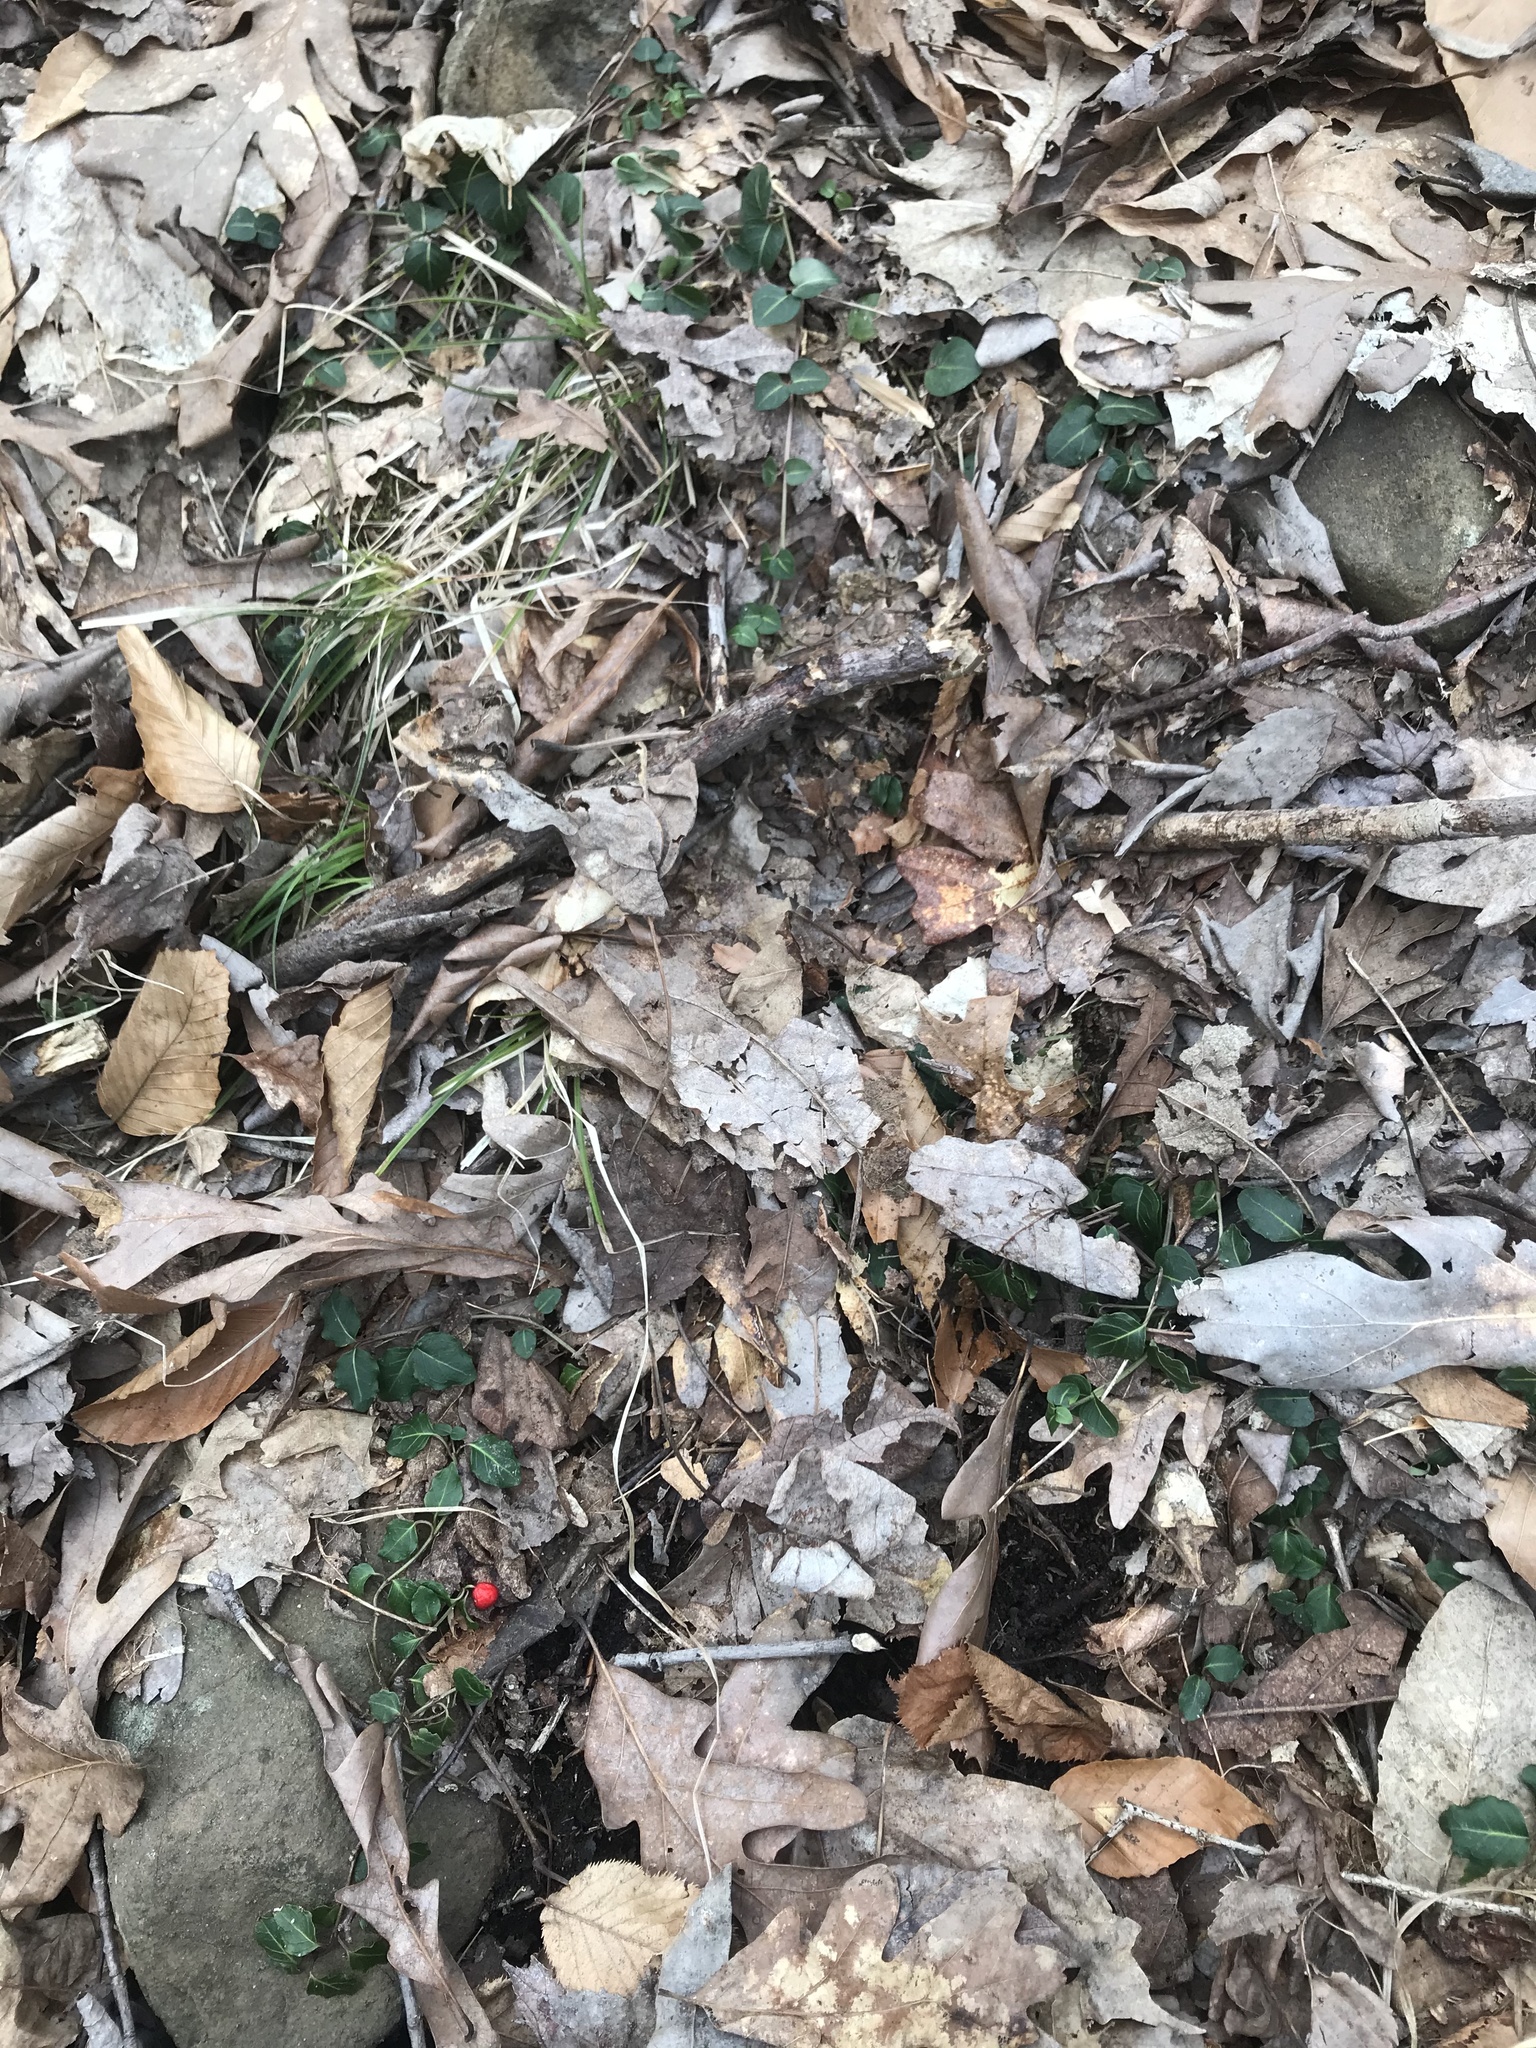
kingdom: Plantae
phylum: Tracheophyta
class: Magnoliopsida
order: Gentianales
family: Rubiaceae
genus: Mitchella
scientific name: Mitchella repens
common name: Partridge-berry
